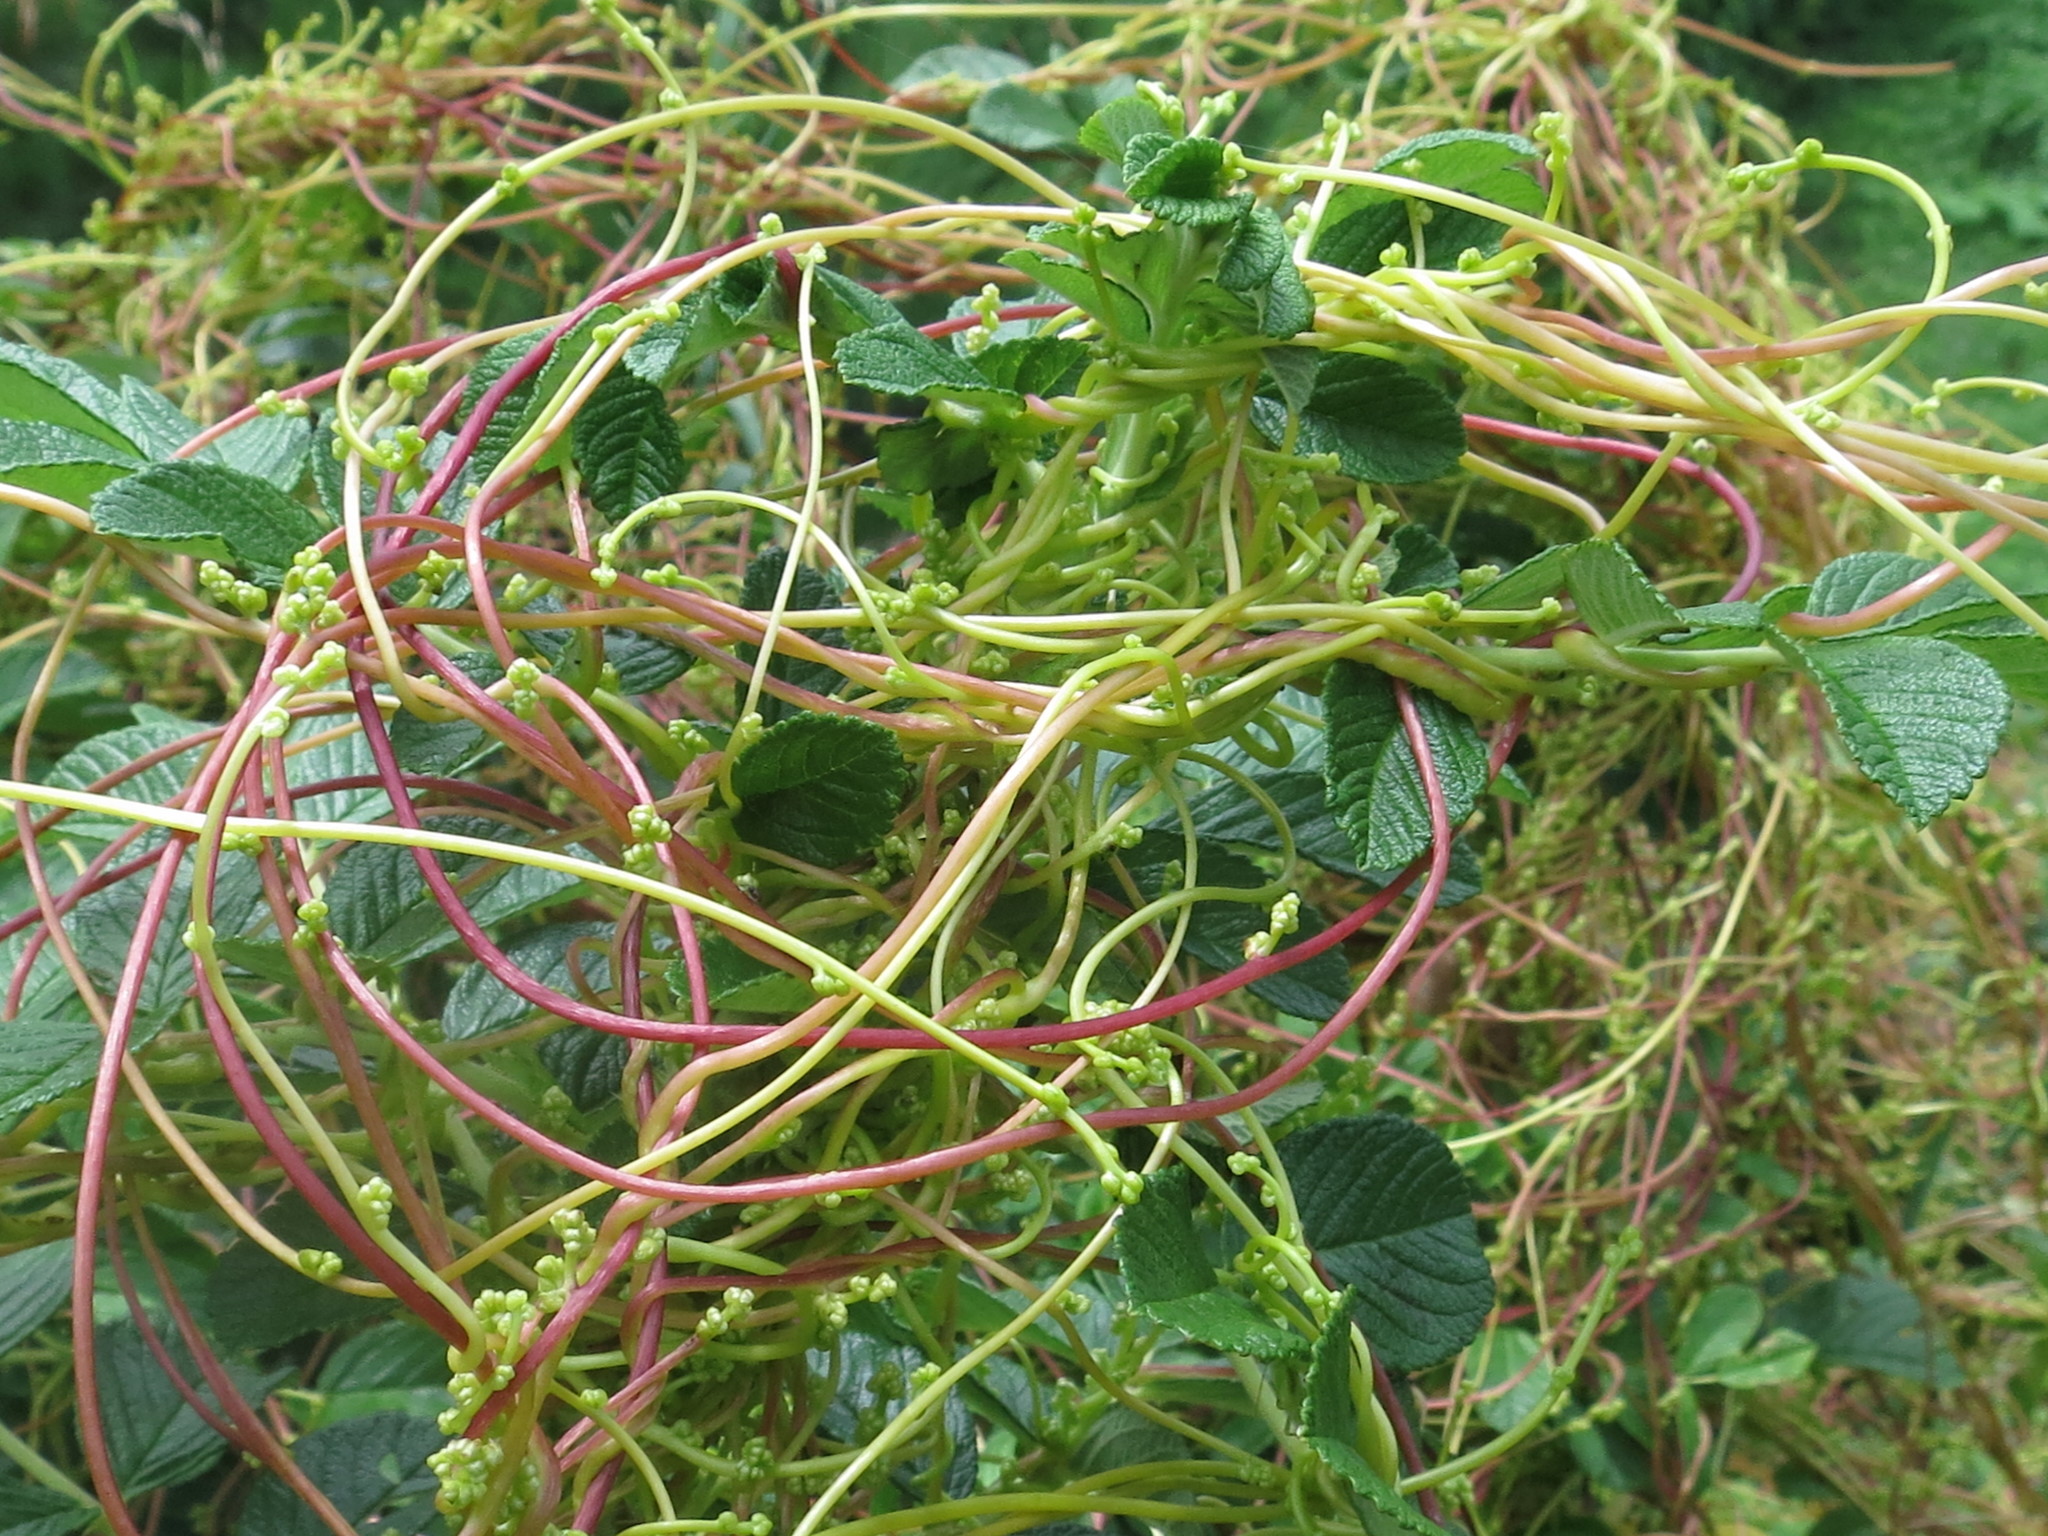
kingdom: Plantae
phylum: Tracheophyta
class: Magnoliopsida
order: Solanales
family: Convolvulaceae
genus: Cuscuta
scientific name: Cuscuta japonica
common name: Japanese dodder
